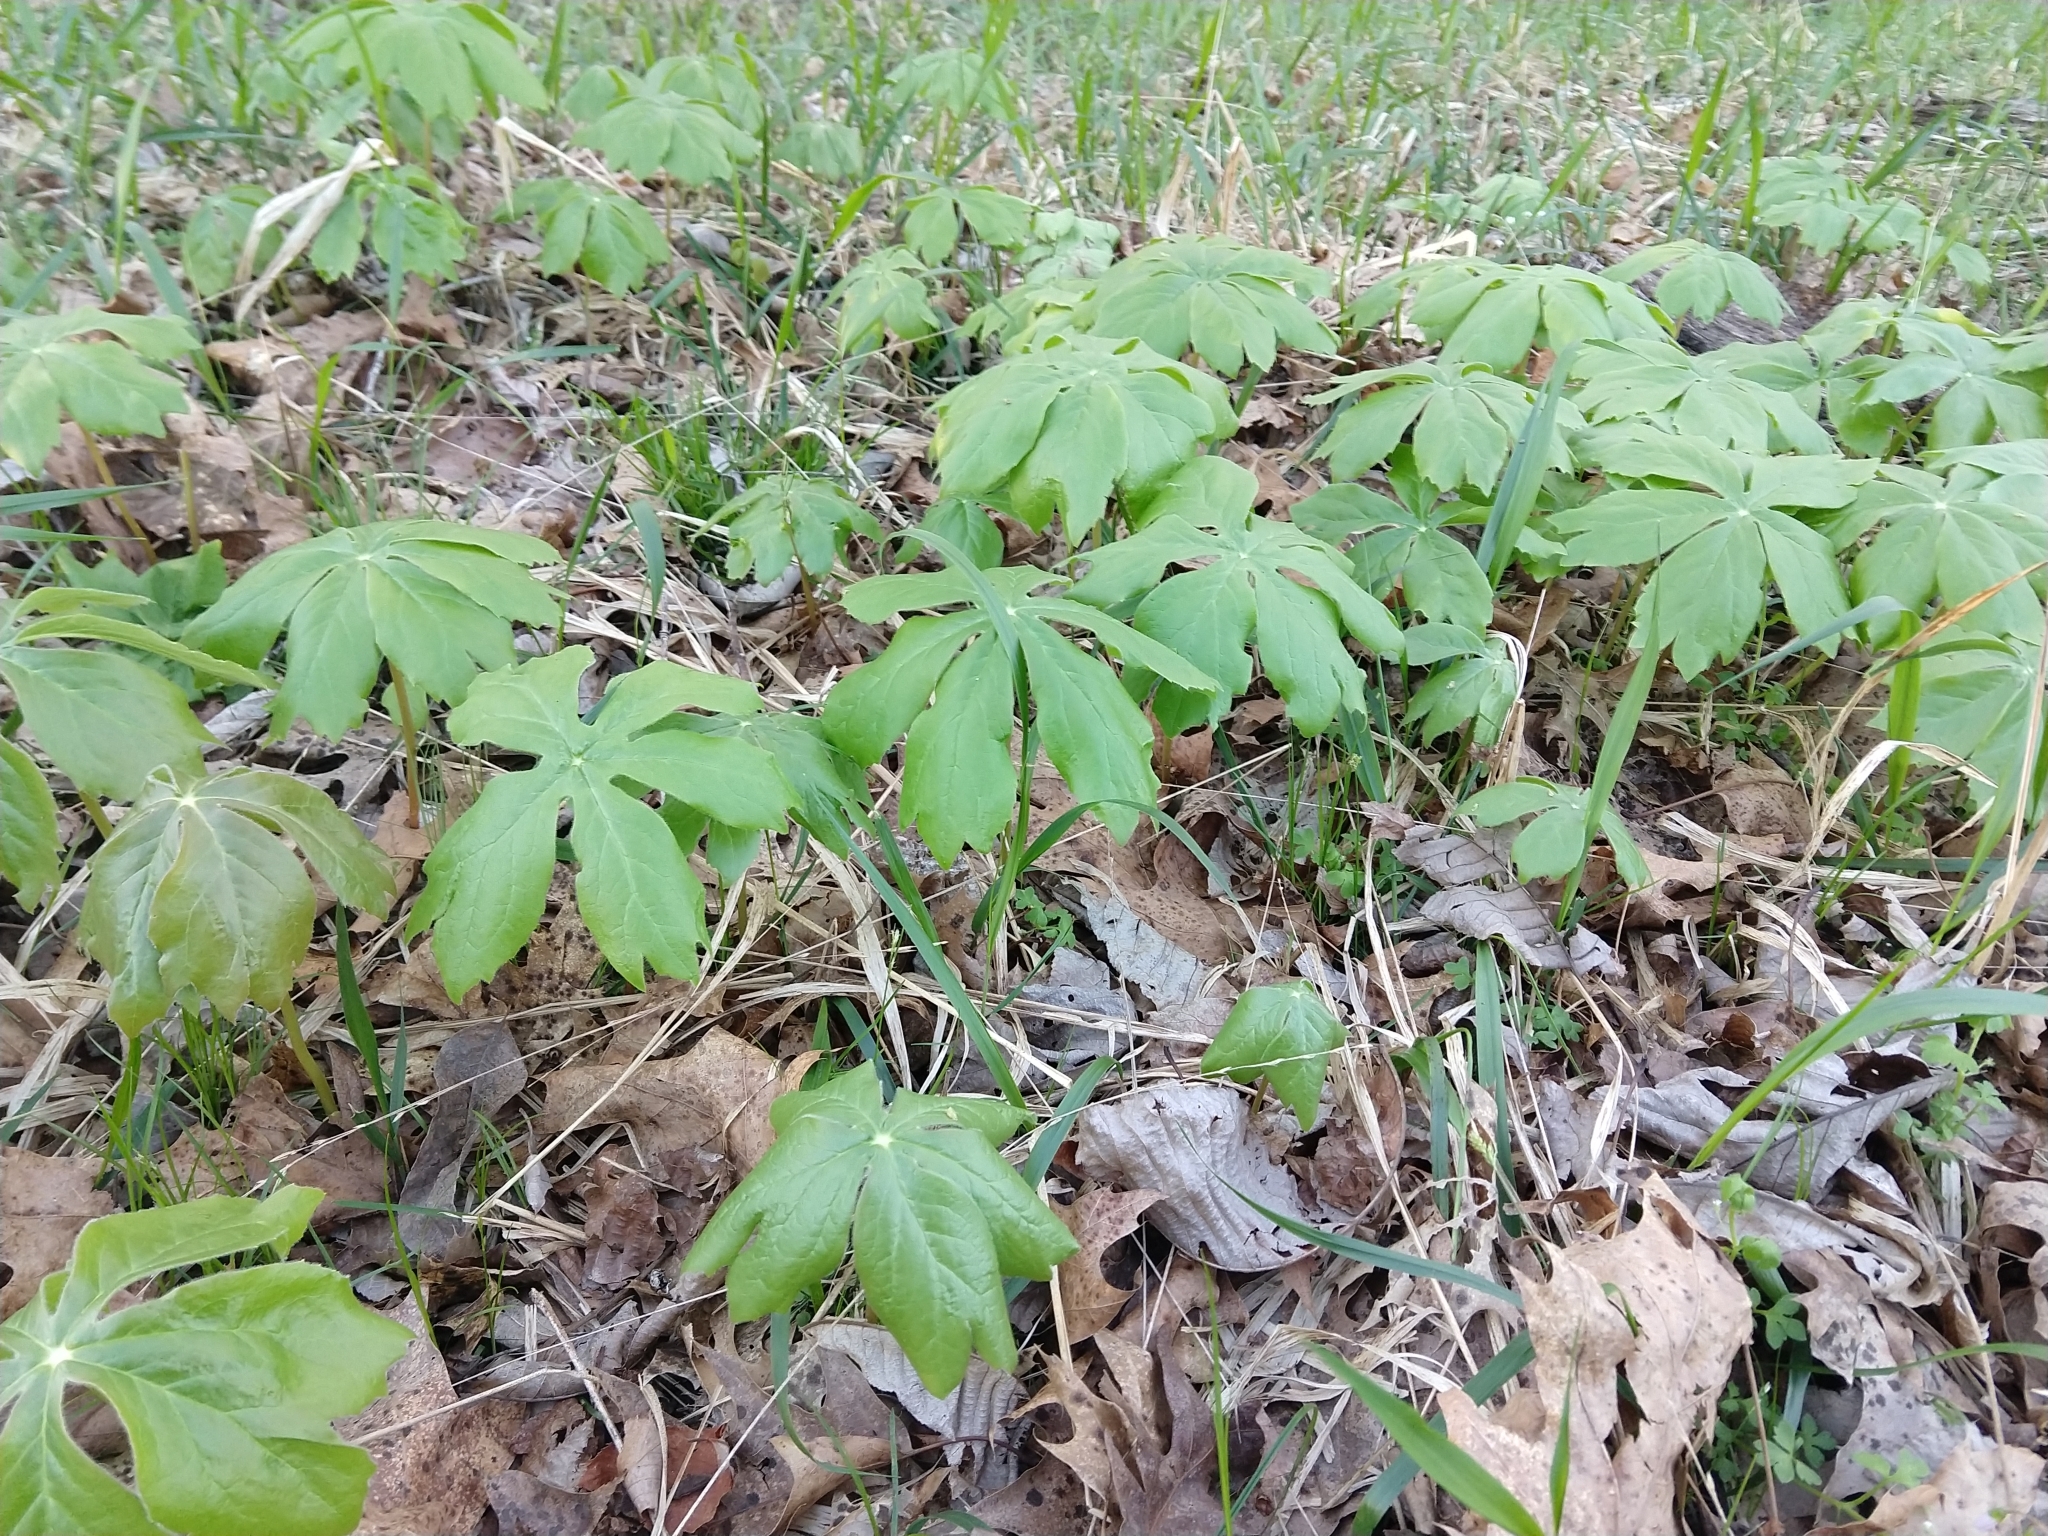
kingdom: Plantae
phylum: Tracheophyta
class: Magnoliopsida
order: Ranunculales
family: Berberidaceae
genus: Podophyllum
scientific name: Podophyllum peltatum
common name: Wild mandrake
